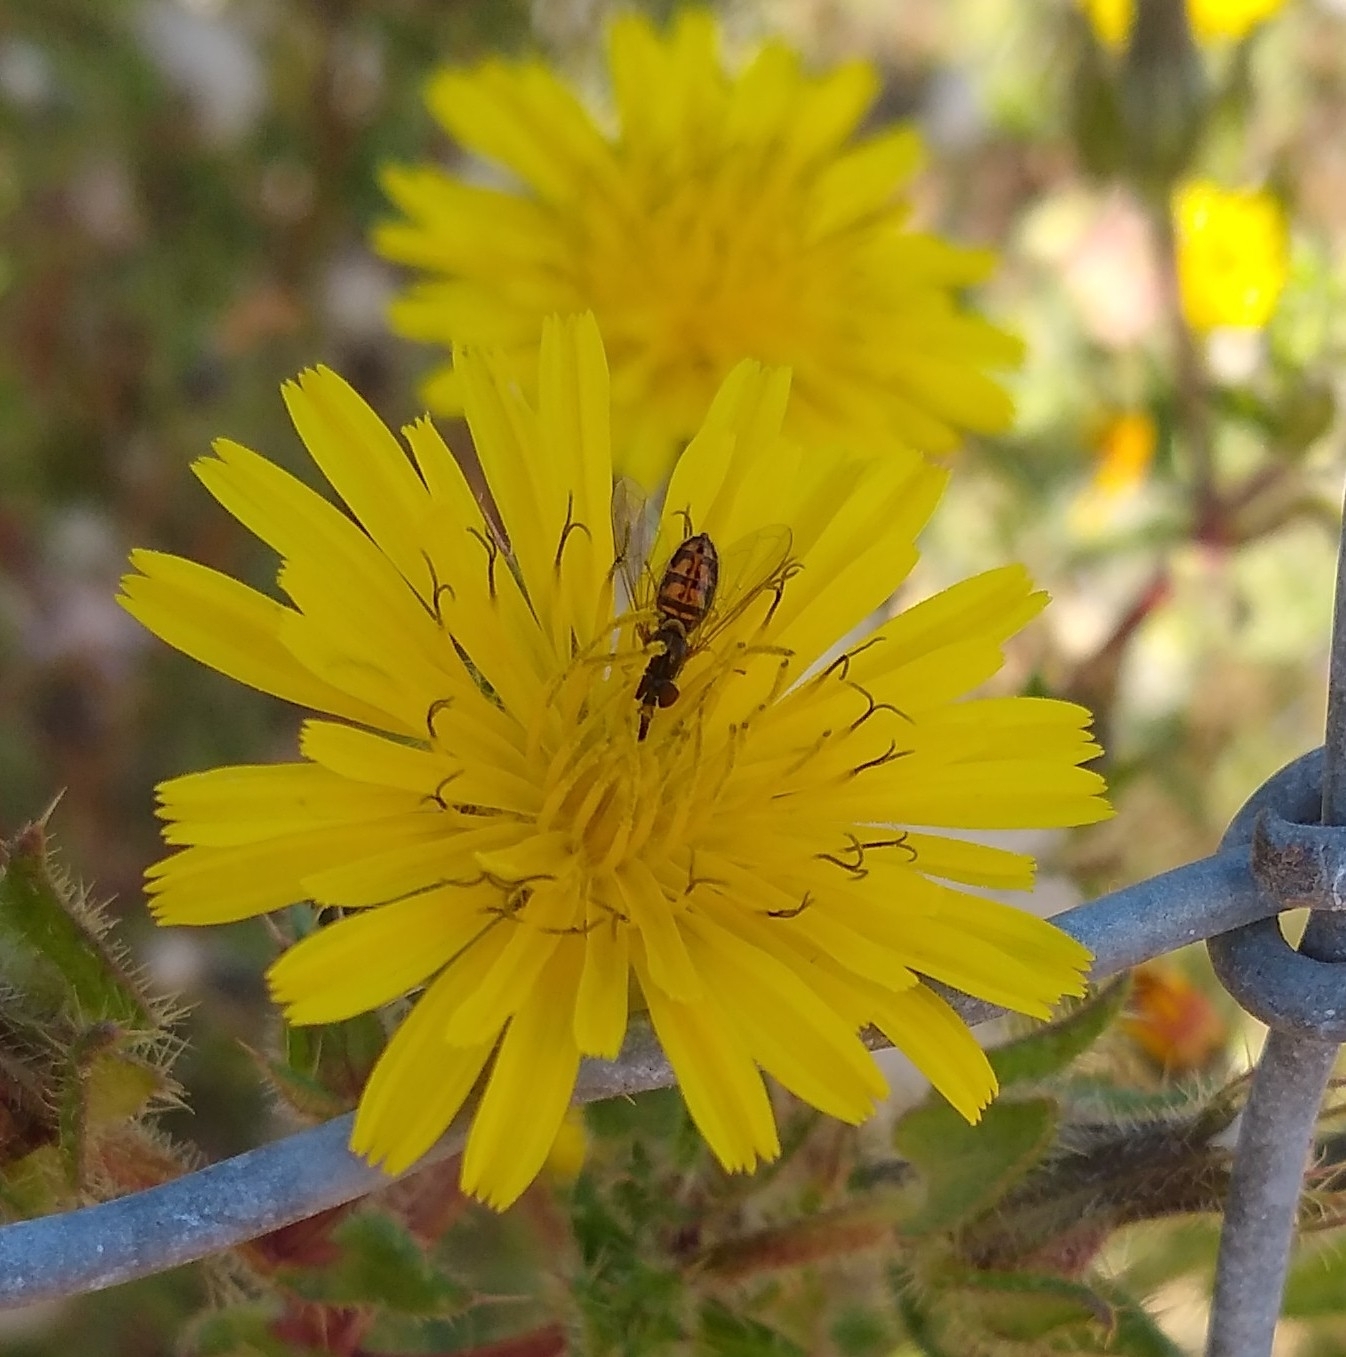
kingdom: Animalia
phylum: Arthropoda
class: Insecta
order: Diptera
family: Syrphidae
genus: Toxomerus
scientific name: Toxomerus marginatus
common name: Syrphid fly
